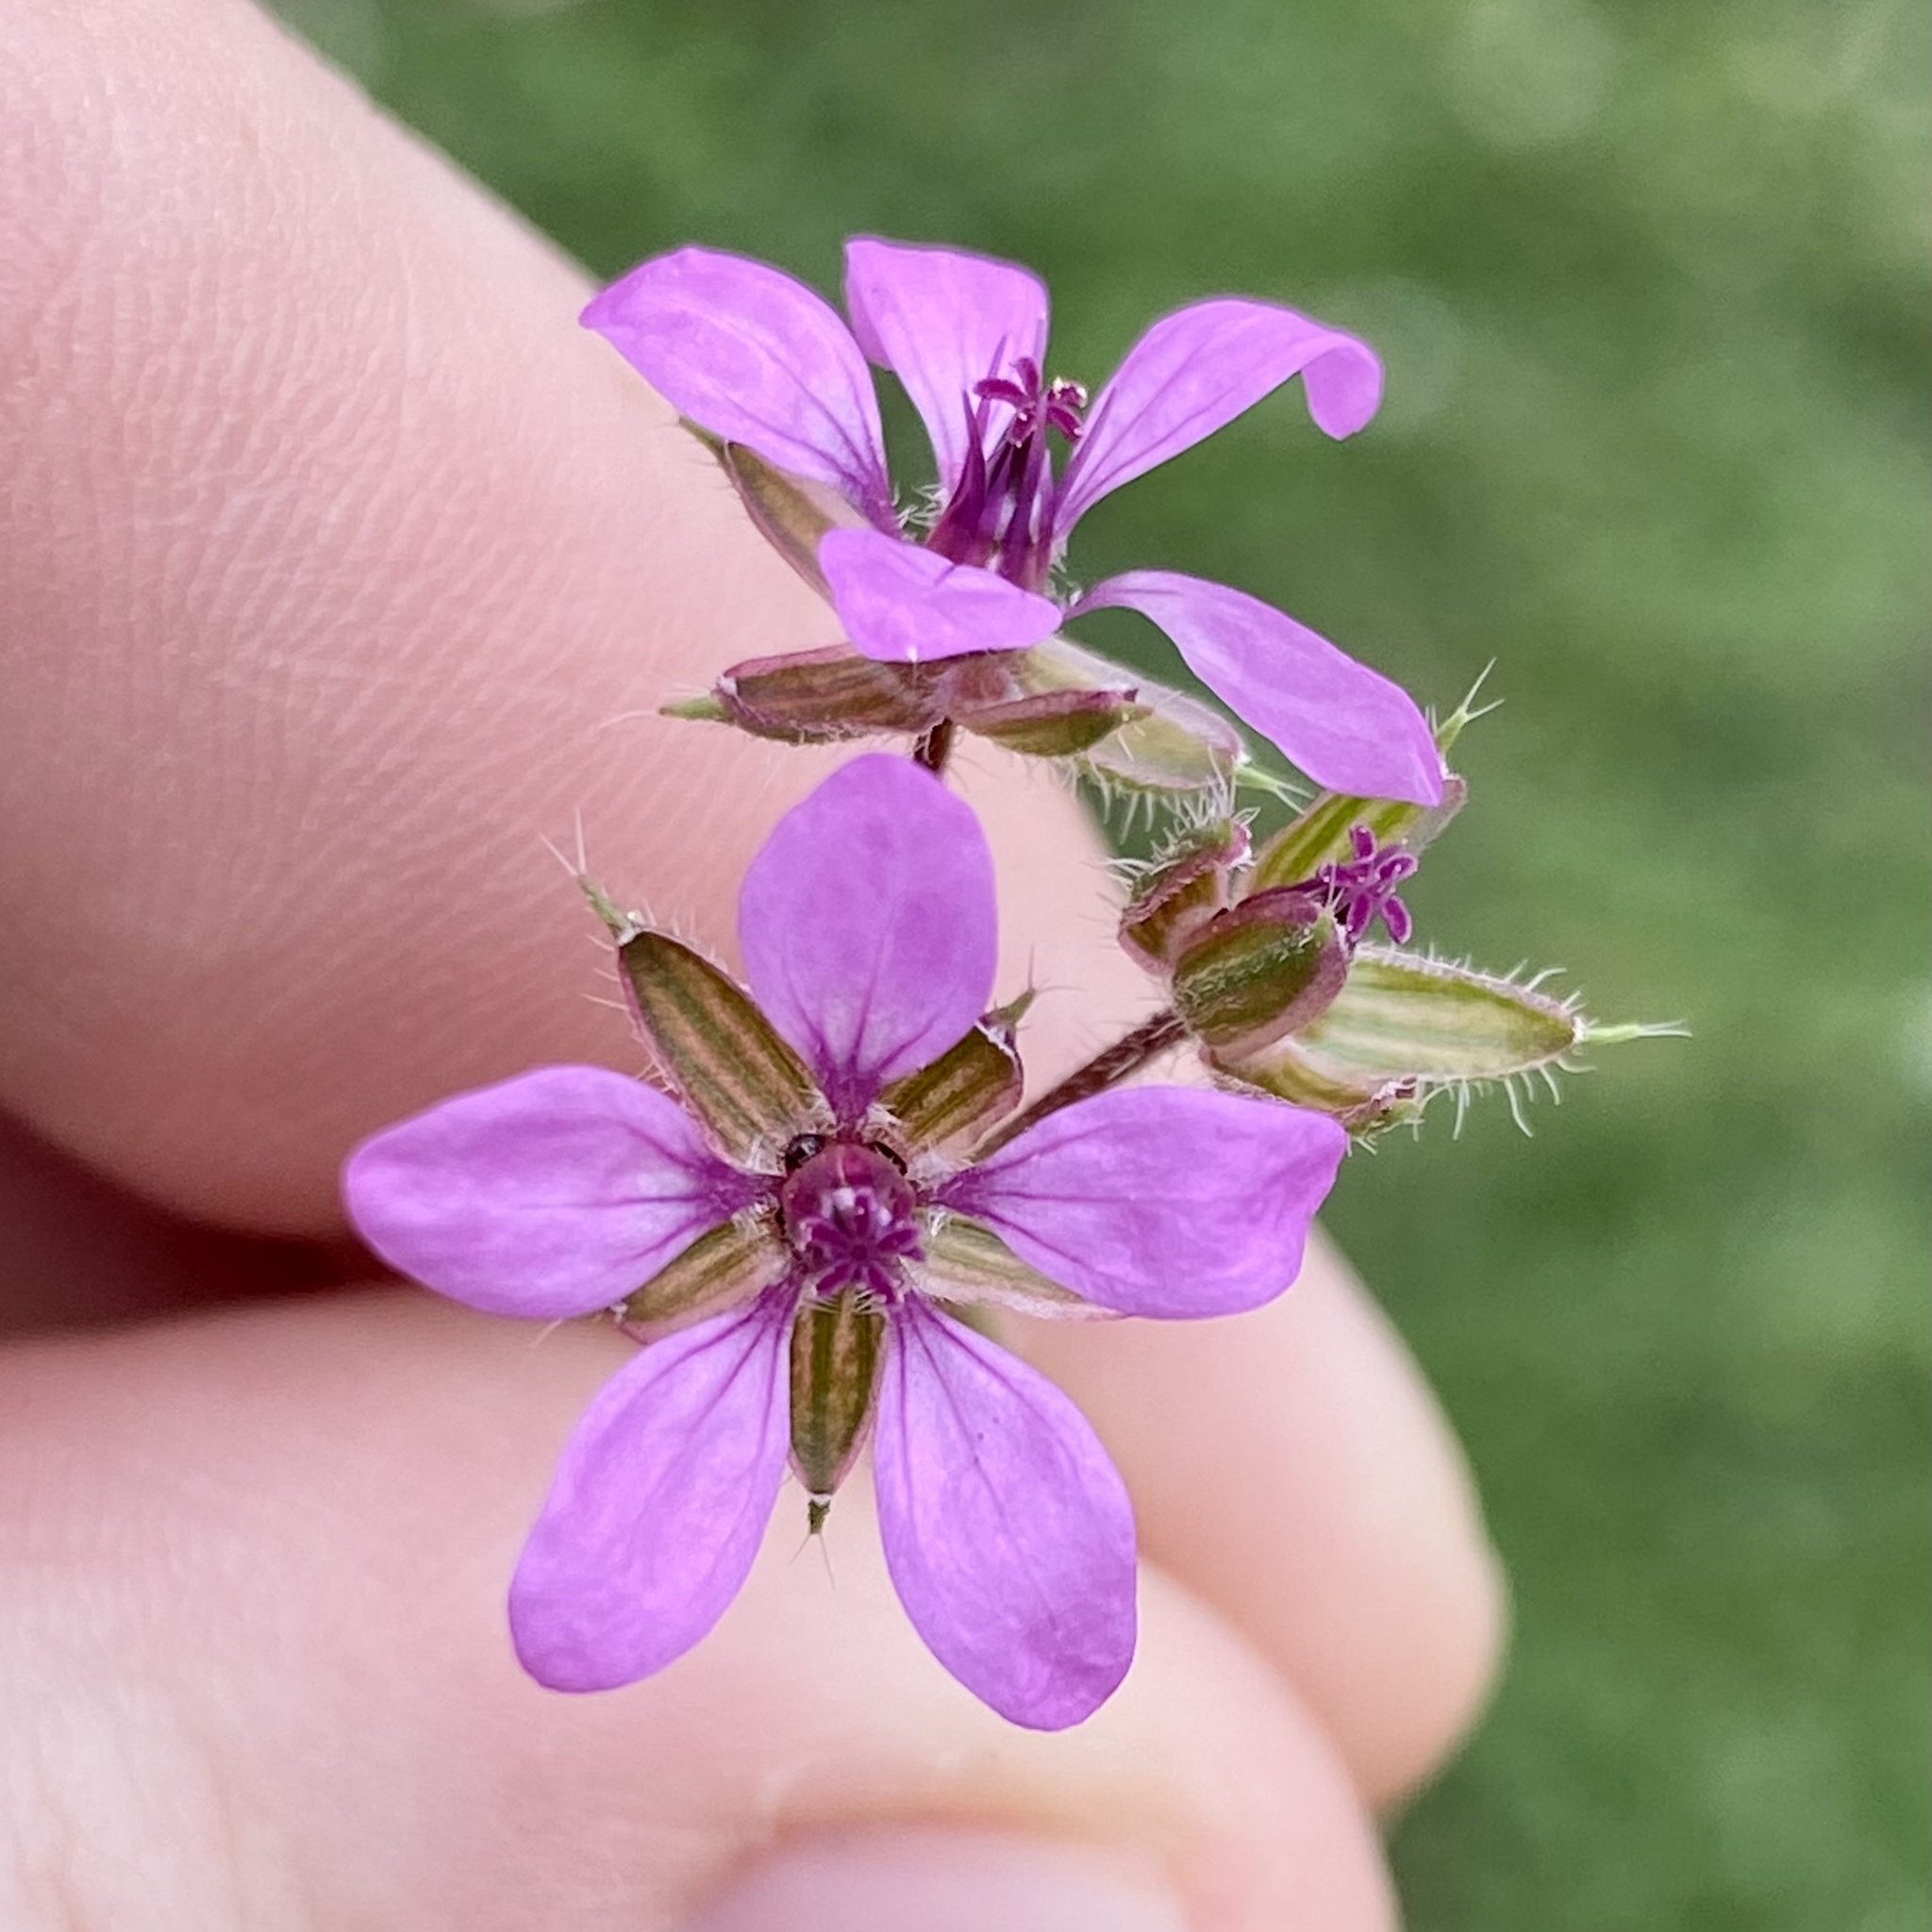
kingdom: Plantae
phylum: Tracheophyta
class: Magnoliopsida
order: Geraniales
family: Geraniaceae
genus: Erodium
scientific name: Erodium cicutarium
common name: Common stork's-bill
